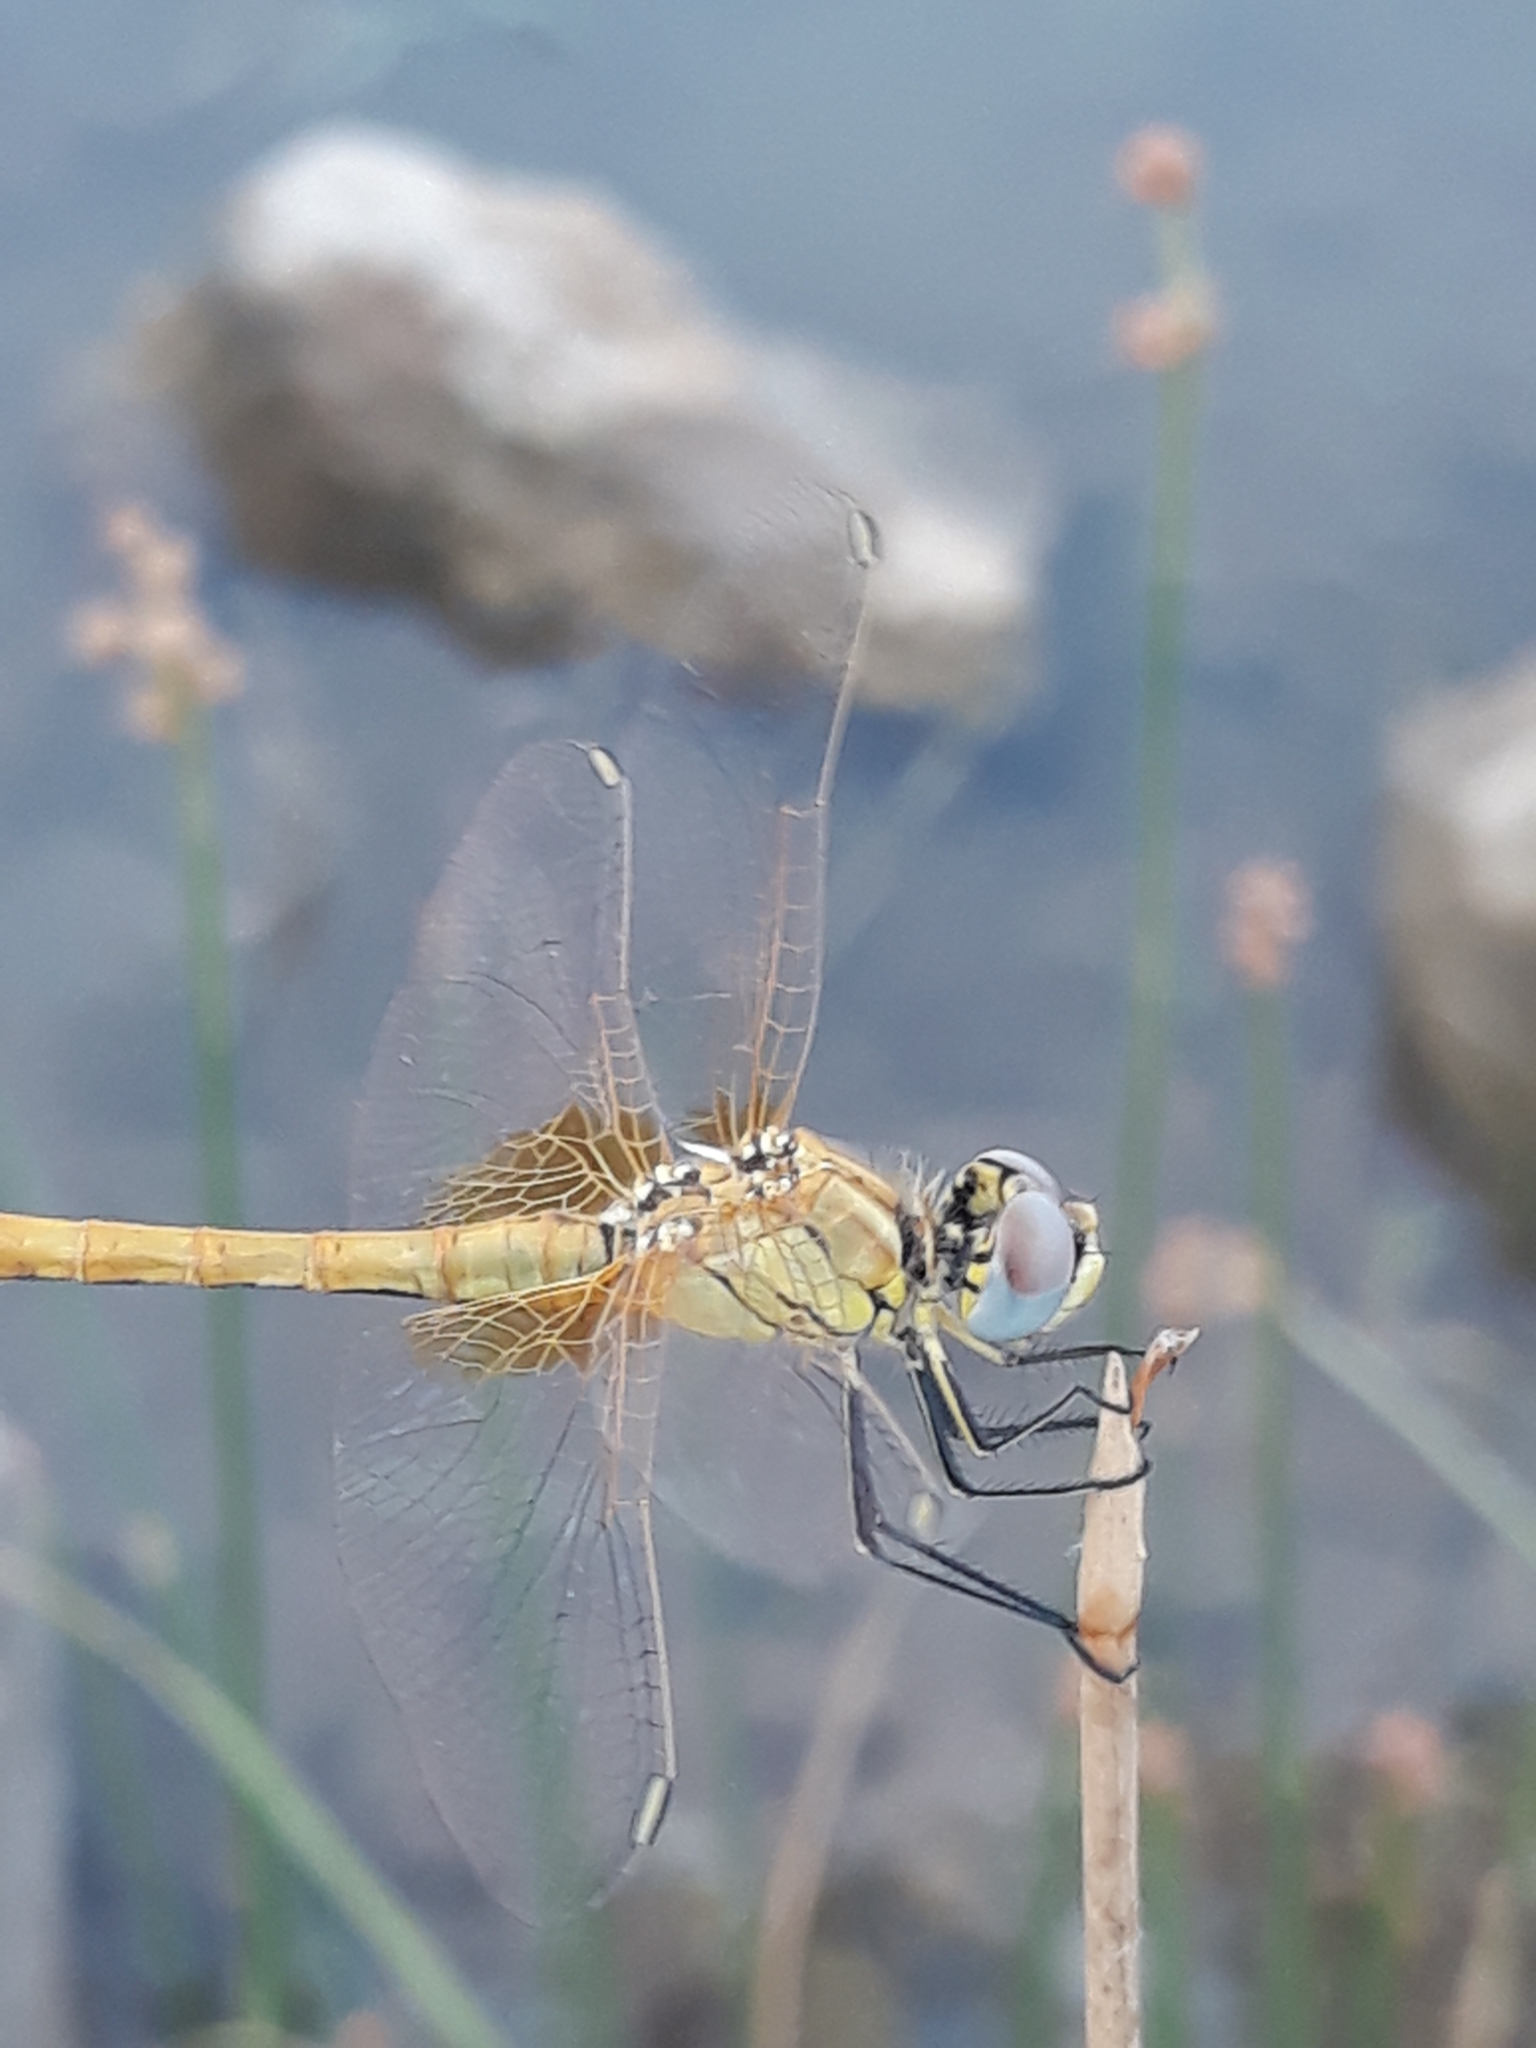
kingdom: Animalia
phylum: Arthropoda
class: Insecta
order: Odonata
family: Libellulidae
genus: Sympetrum
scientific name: Sympetrum fonscolombii
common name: Red-veined darter
